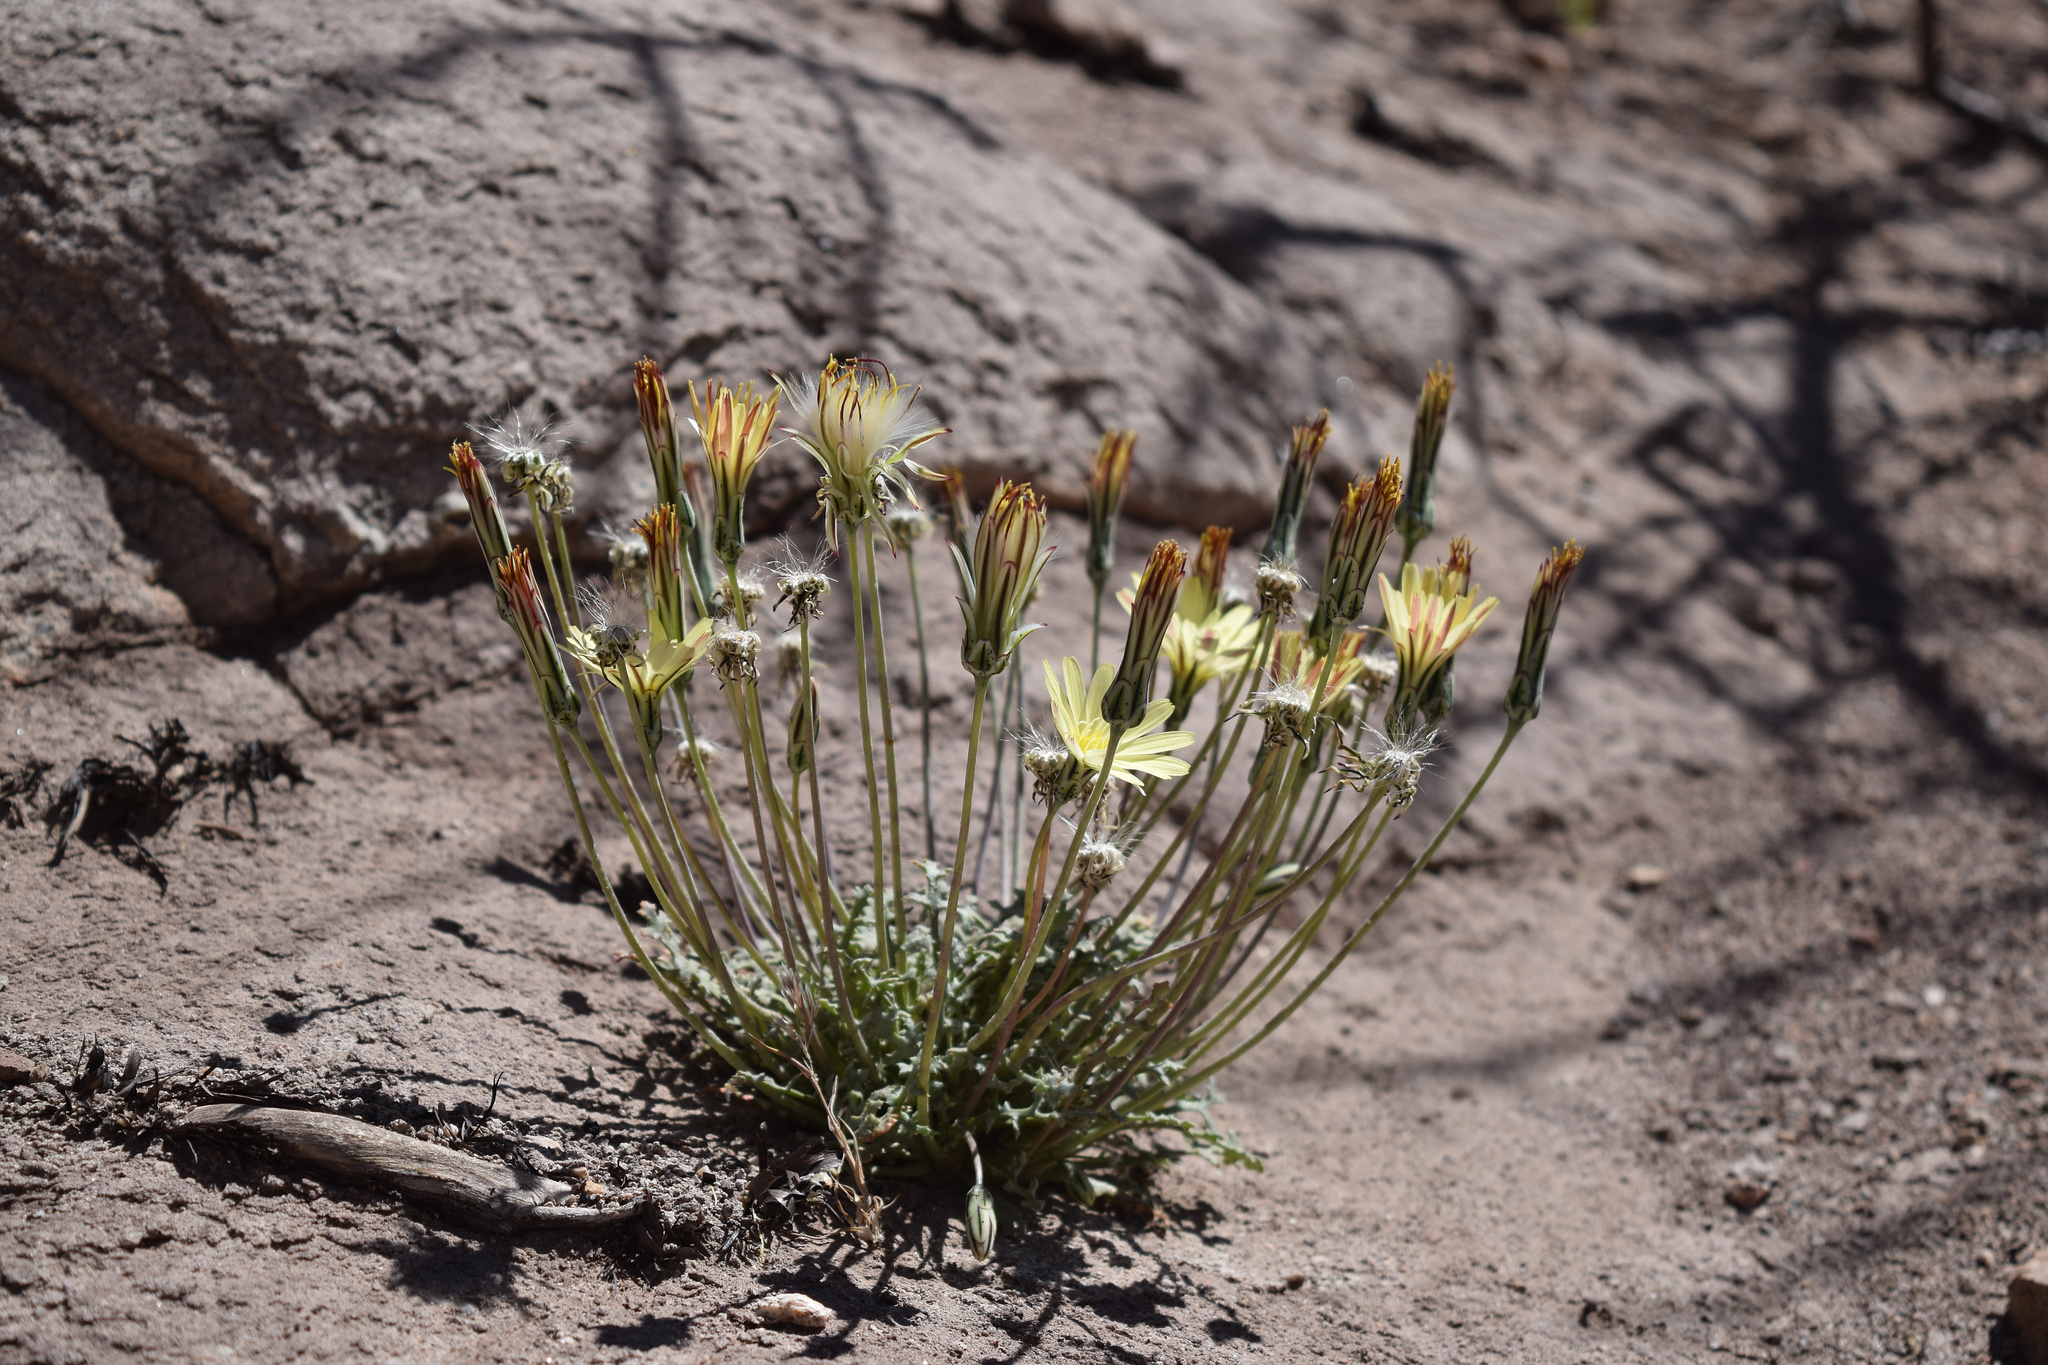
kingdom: Plantae
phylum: Tracheophyta
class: Magnoliopsida
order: Asterales
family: Asteraceae
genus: Anisocoma
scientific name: Anisocoma acaulis
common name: Scalebud
